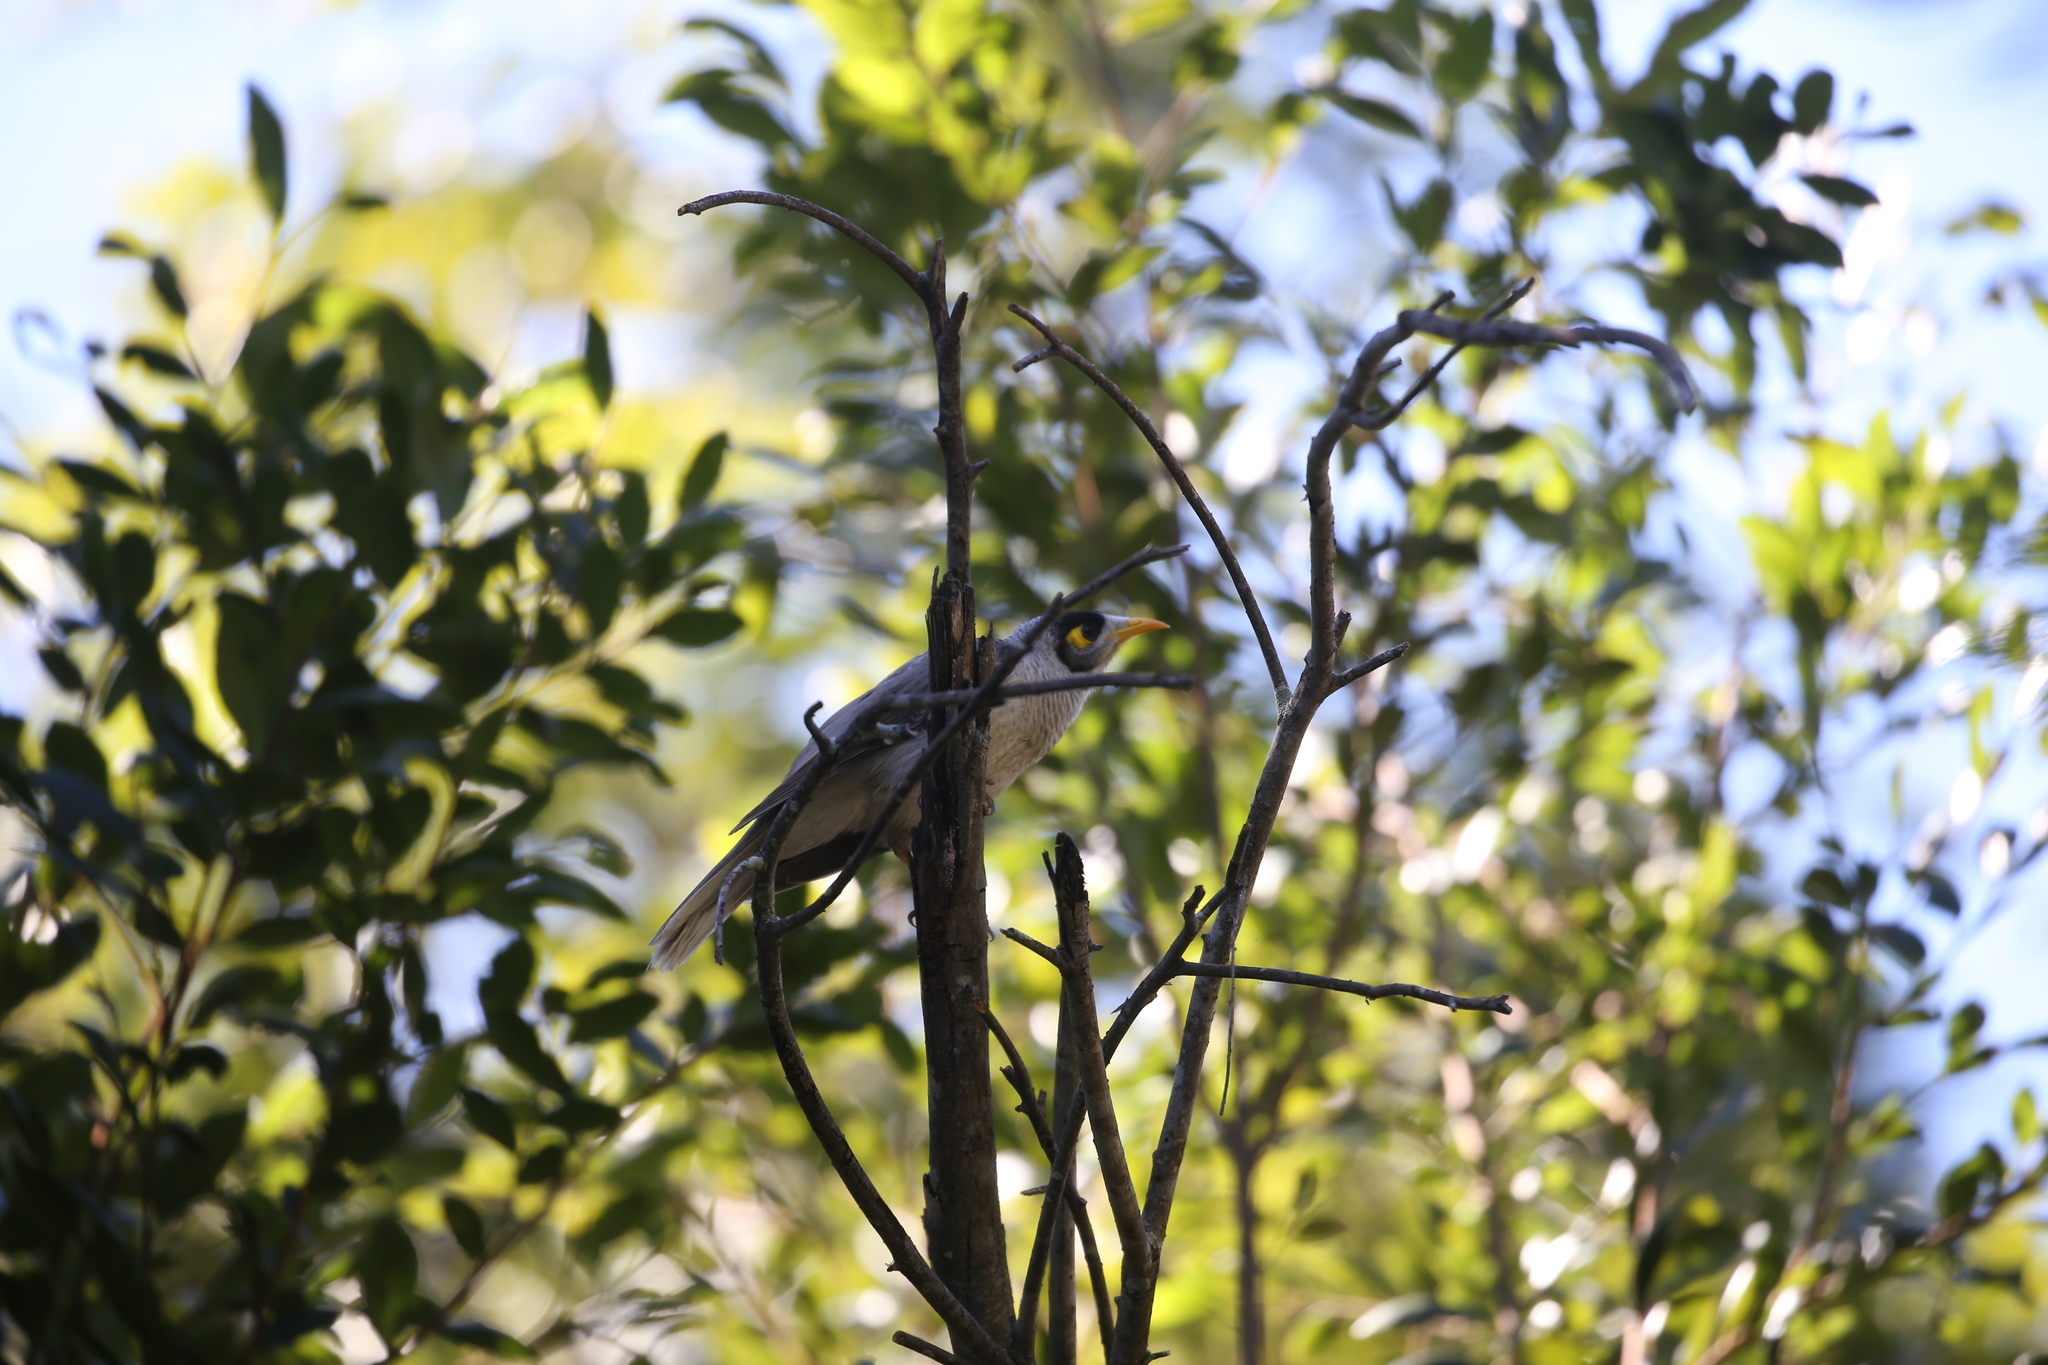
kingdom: Animalia
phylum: Chordata
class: Aves
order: Passeriformes
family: Meliphagidae
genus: Manorina
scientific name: Manorina melanocephala
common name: Noisy miner
